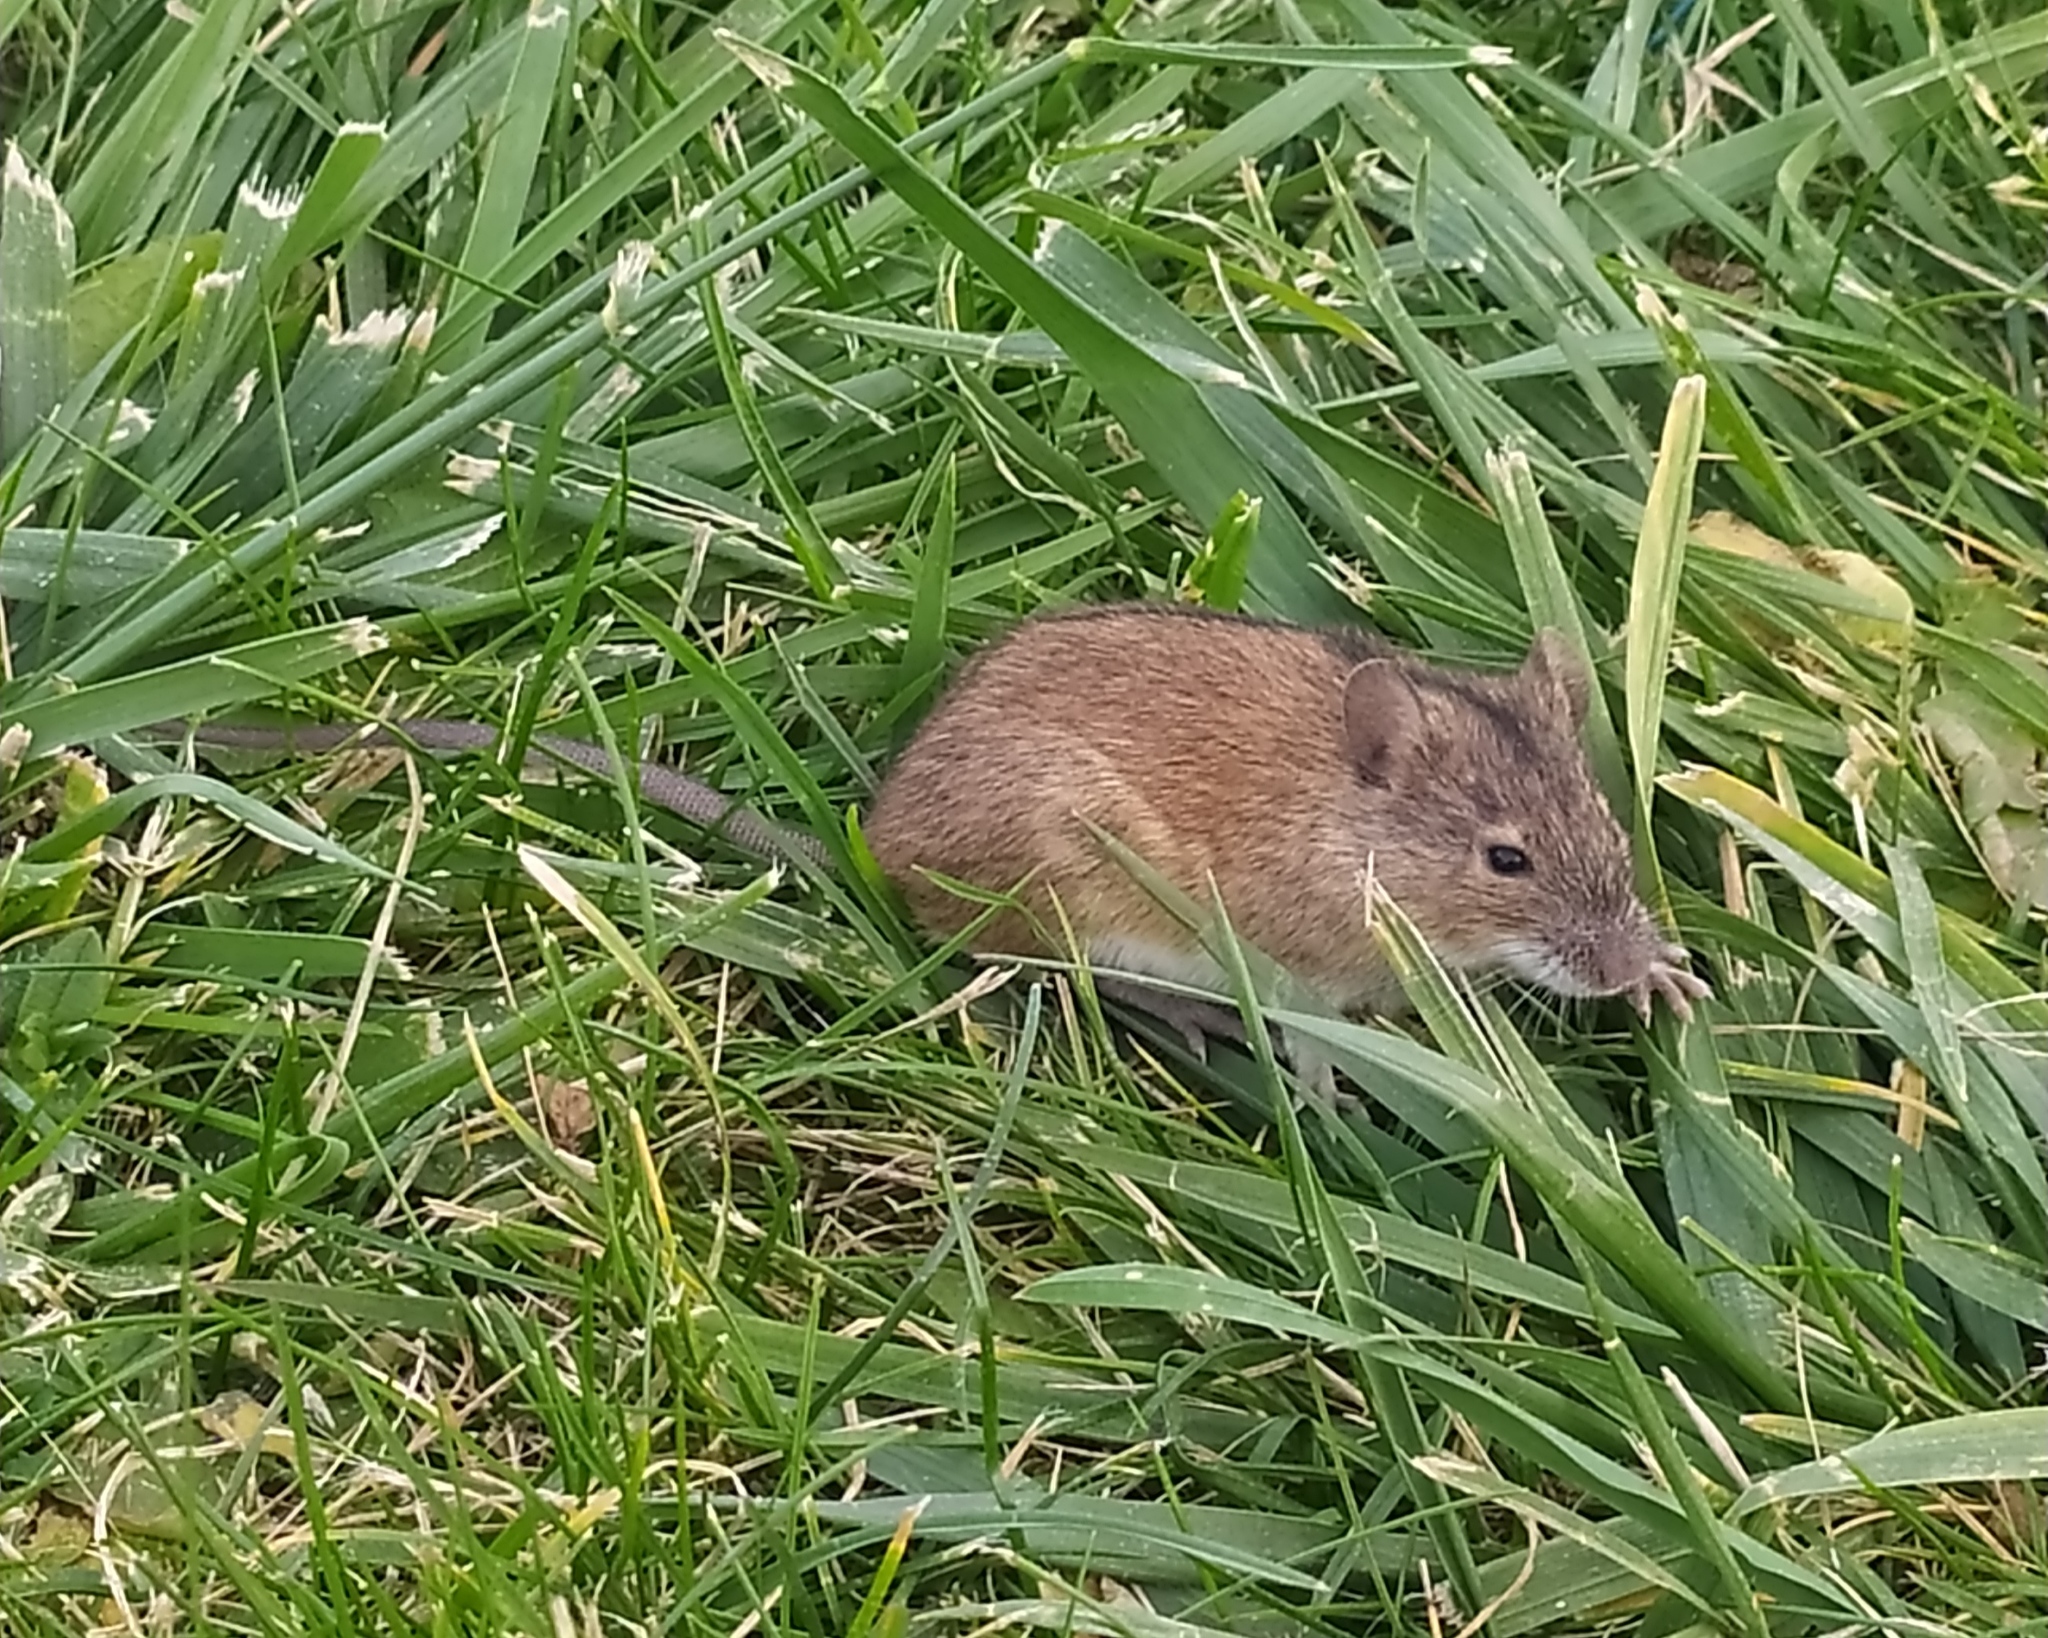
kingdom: Animalia
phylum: Chordata
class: Mammalia
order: Rodentia
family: Muridae
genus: Apodemus
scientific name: Apodemus agrarius
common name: Striped field mouse
